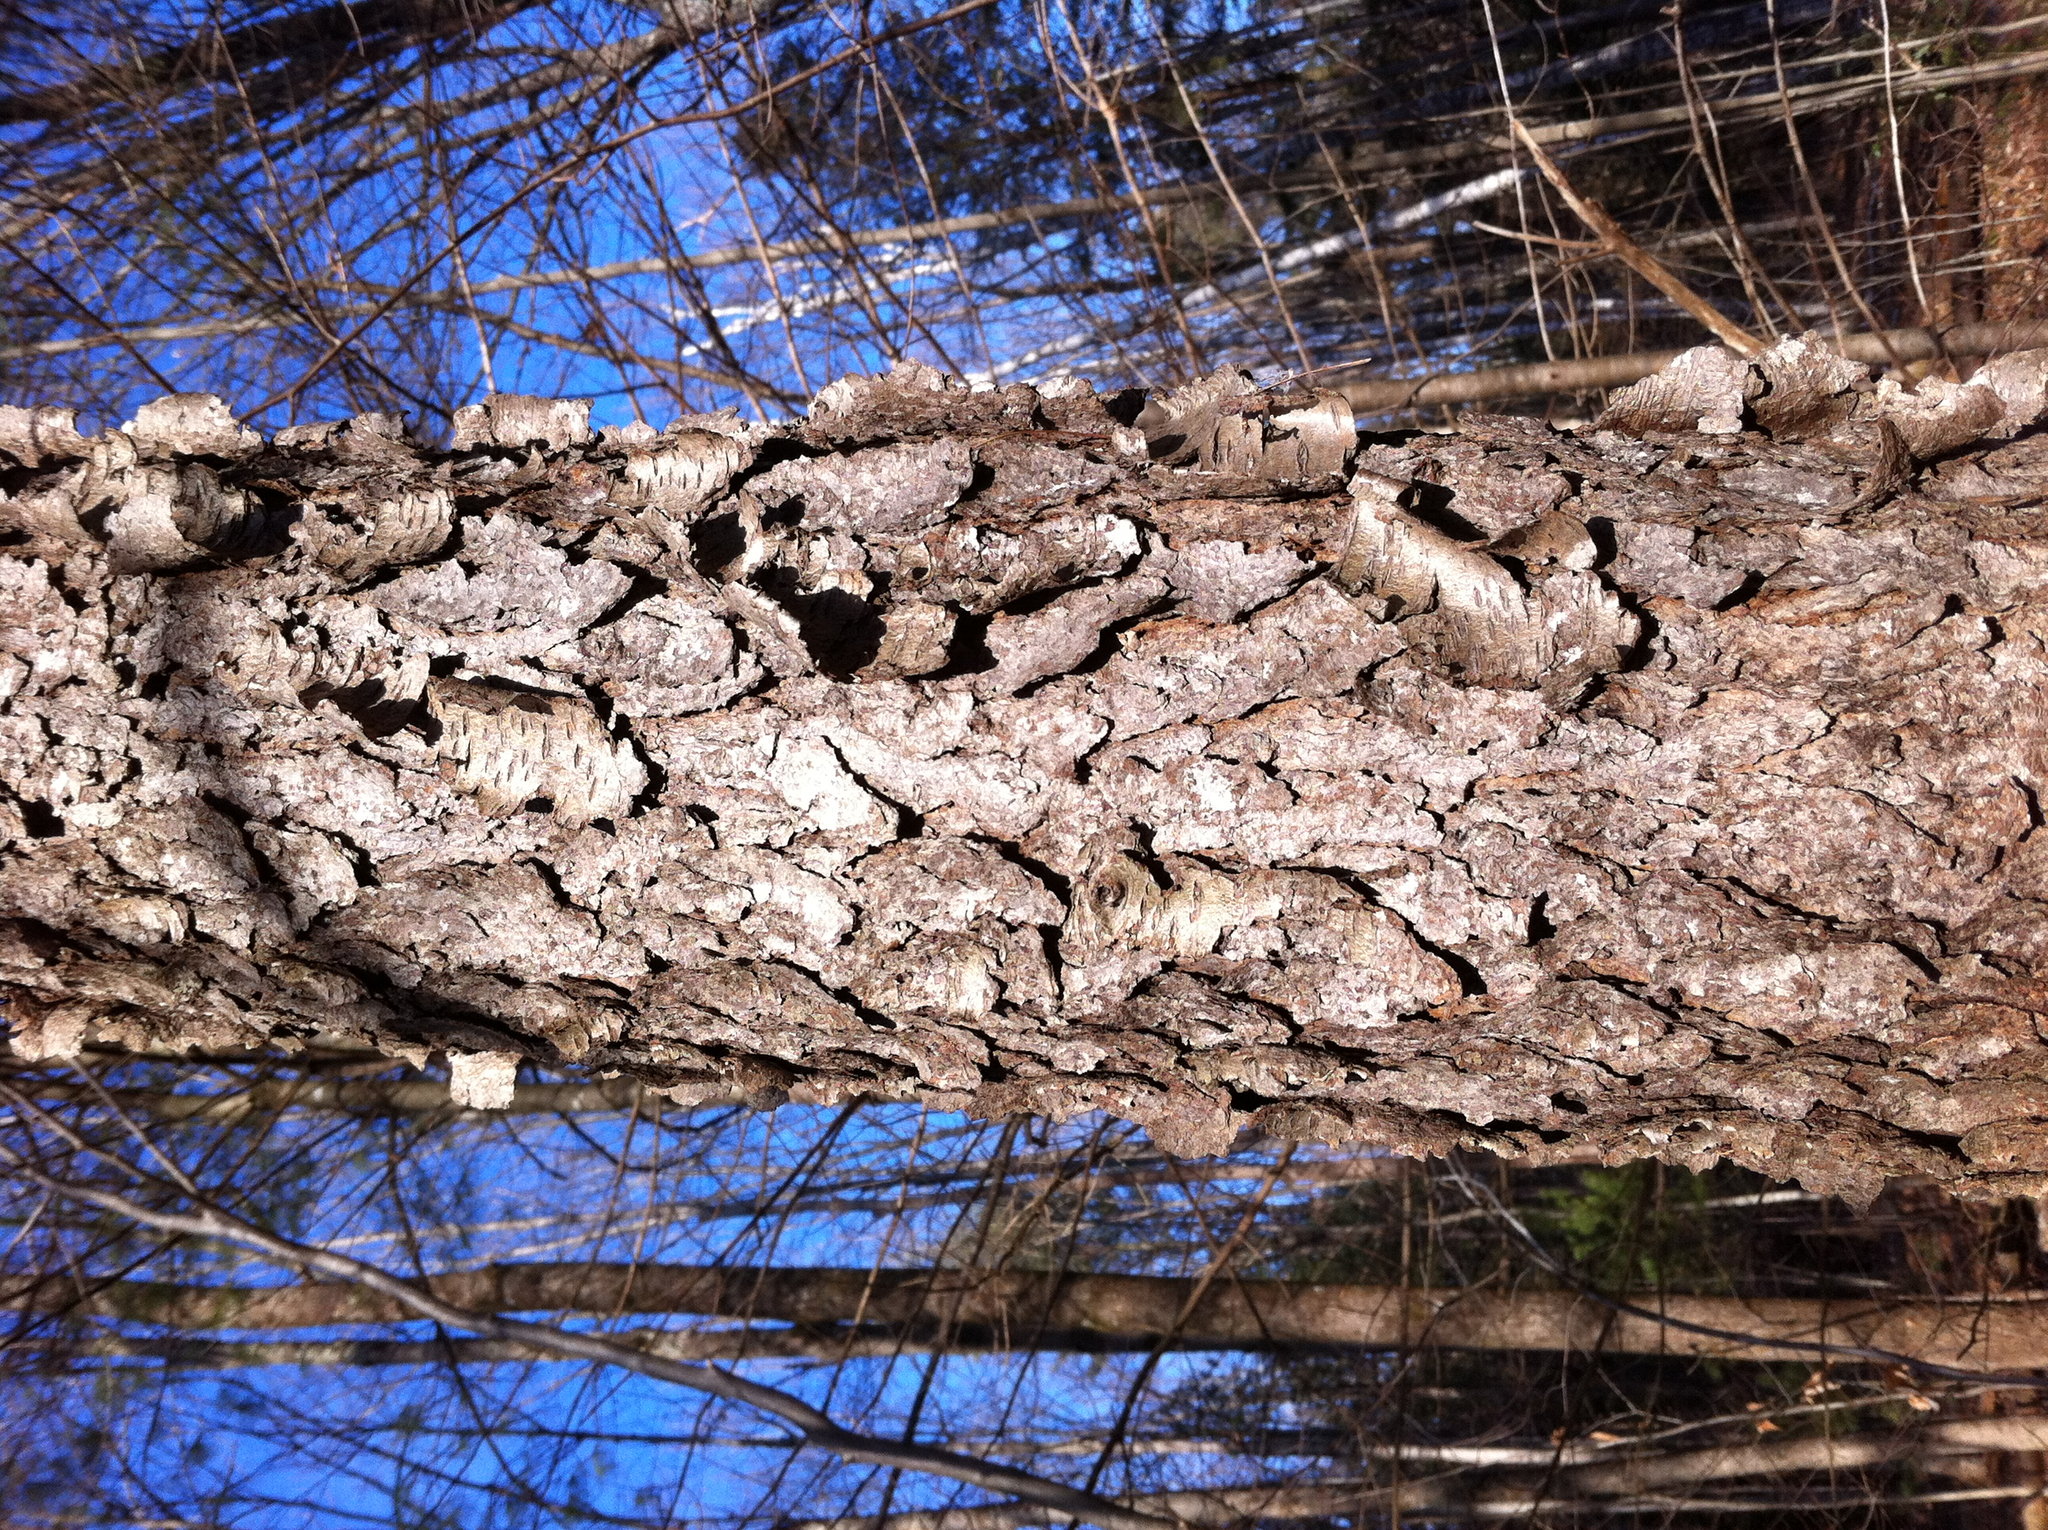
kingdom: Plantae
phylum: Tracheophyta
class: Magnoliopsida
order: Rosales
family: Rosaceae
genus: Prunus
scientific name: Prunus serotina
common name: Black cherry
